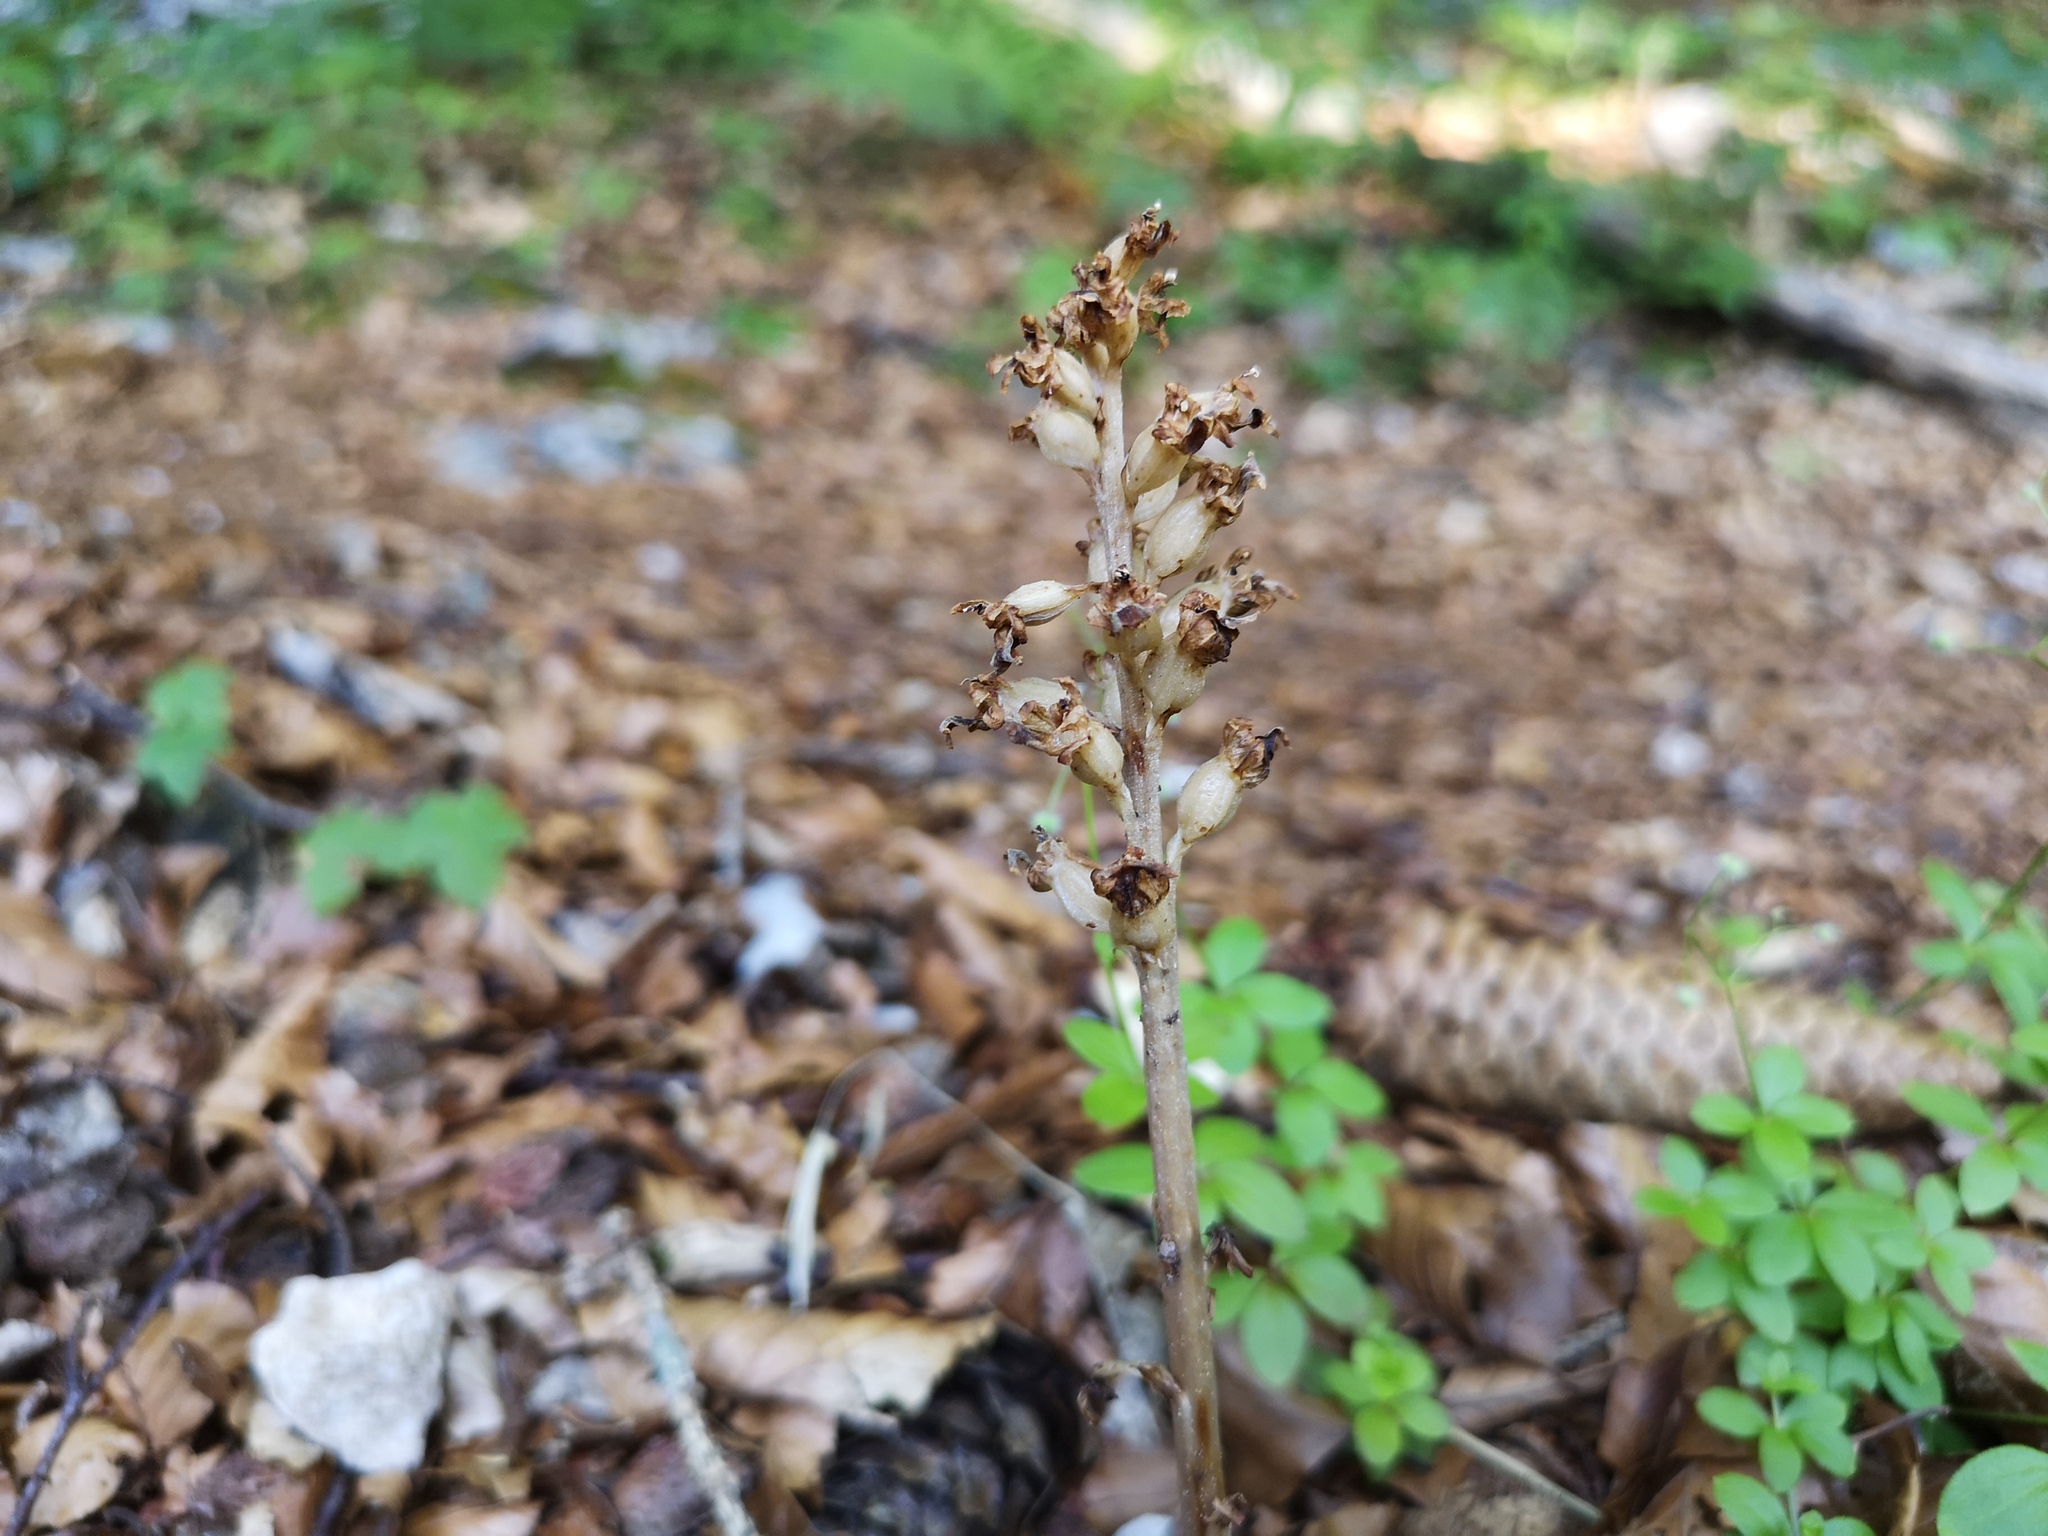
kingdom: Plantae
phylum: Tracheophyta
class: Liliopsida
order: Asparagales
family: Orchidaceae
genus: Neottia
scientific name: Neottia nidus-avis
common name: Bird's-nest orchid
